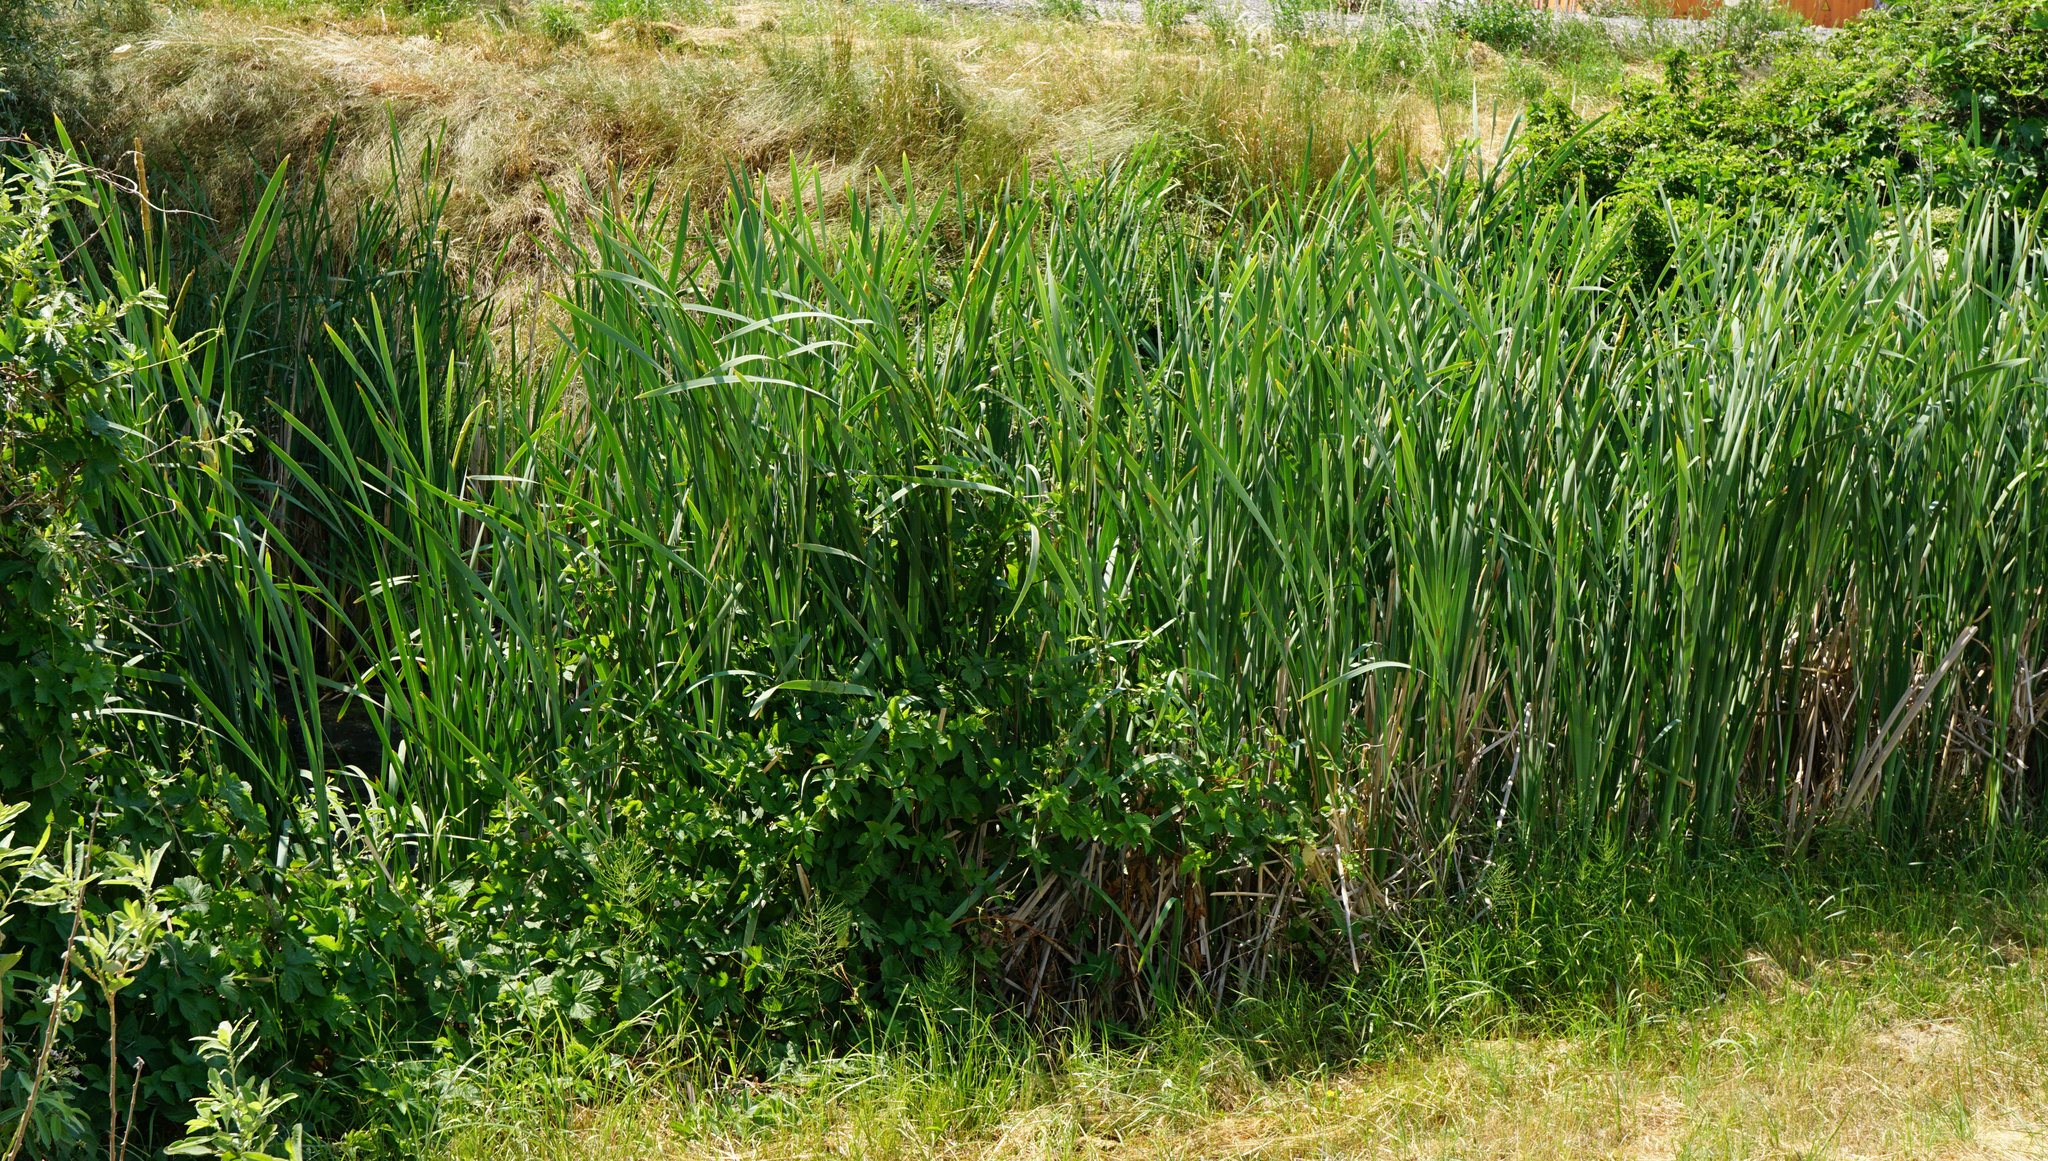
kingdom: Plantae
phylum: Tracheophyta
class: Liliopsida
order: Poales
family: Typhaceae
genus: Typha
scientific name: Typha latifolia
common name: Broadleaf cattail
